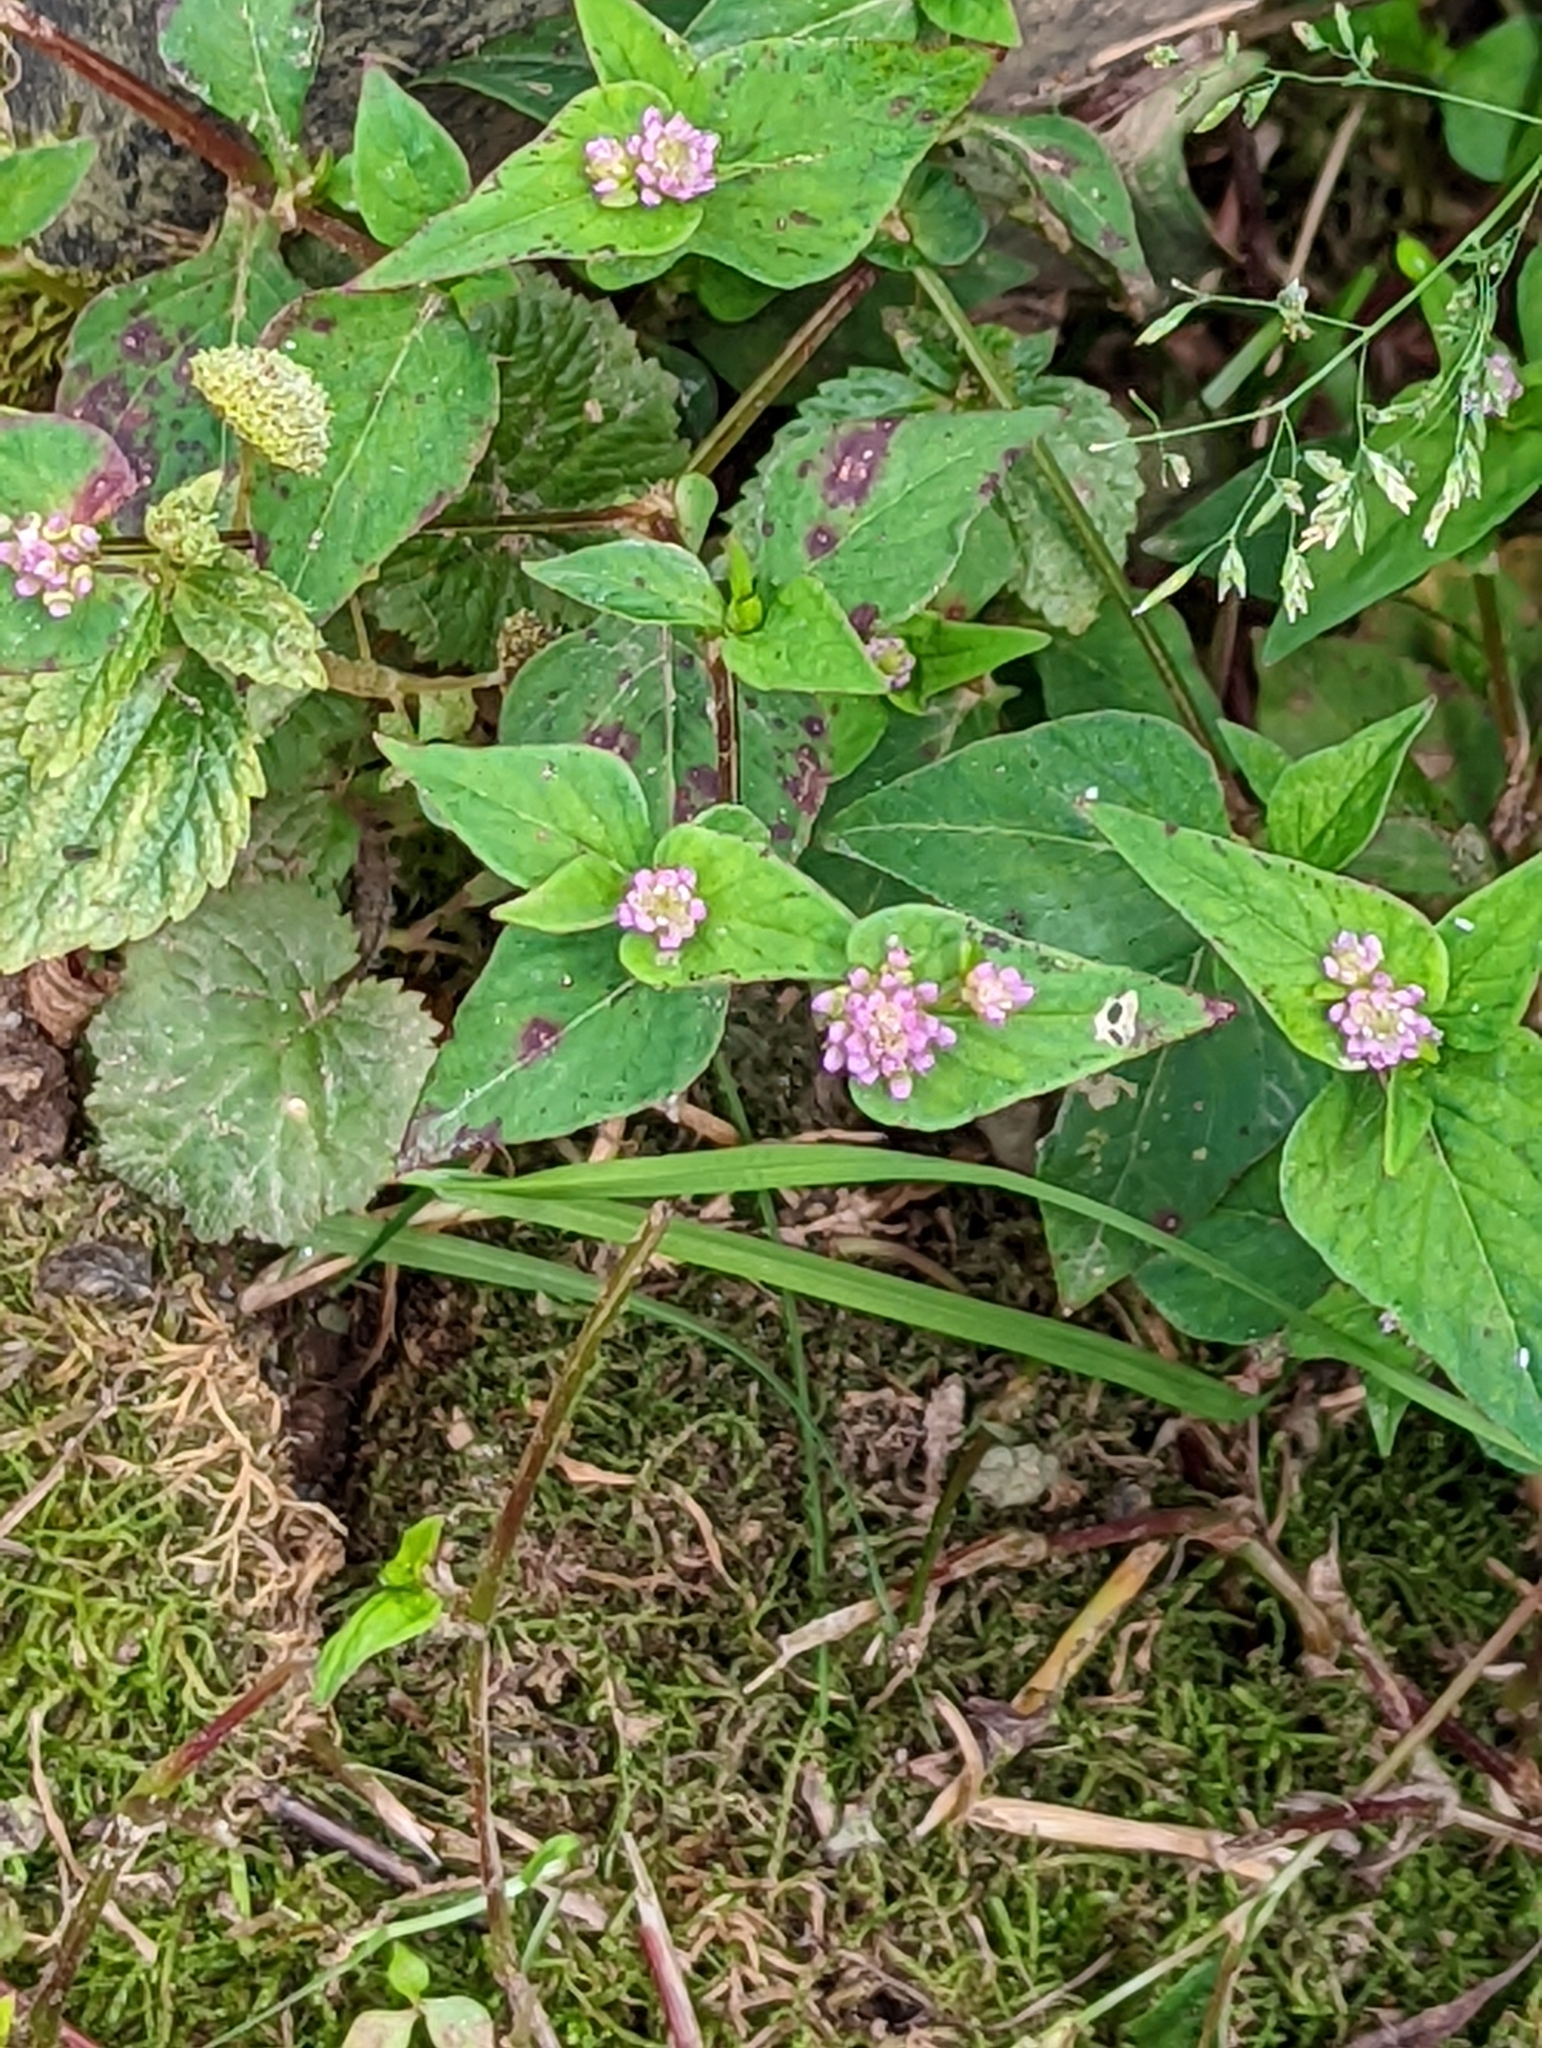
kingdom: Plantae
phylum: Tracheophyta
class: Magnoliopsida
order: Caryophyllales
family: Polygonaceae
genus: Persicaria
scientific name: Persicaria nepalensis
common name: Nepal persicaria
